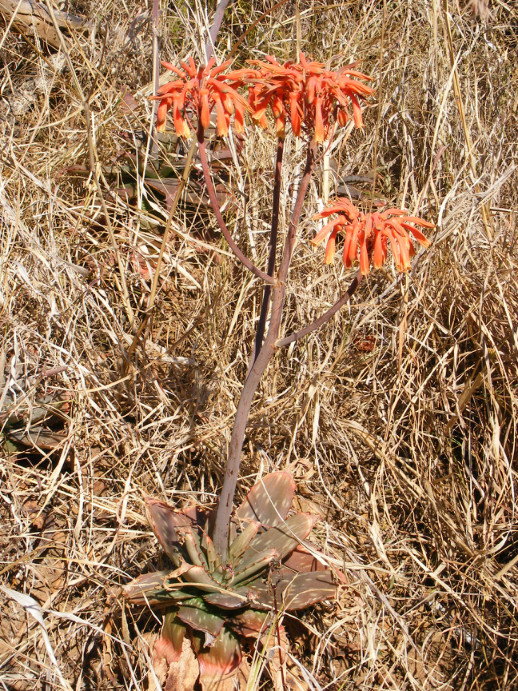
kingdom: Plantae
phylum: Tracheophyta
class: Liliopsida
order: Asparagales
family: Asphodelaceae
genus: Aloe
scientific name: Aloe maculata
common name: Broadleaf aloe
